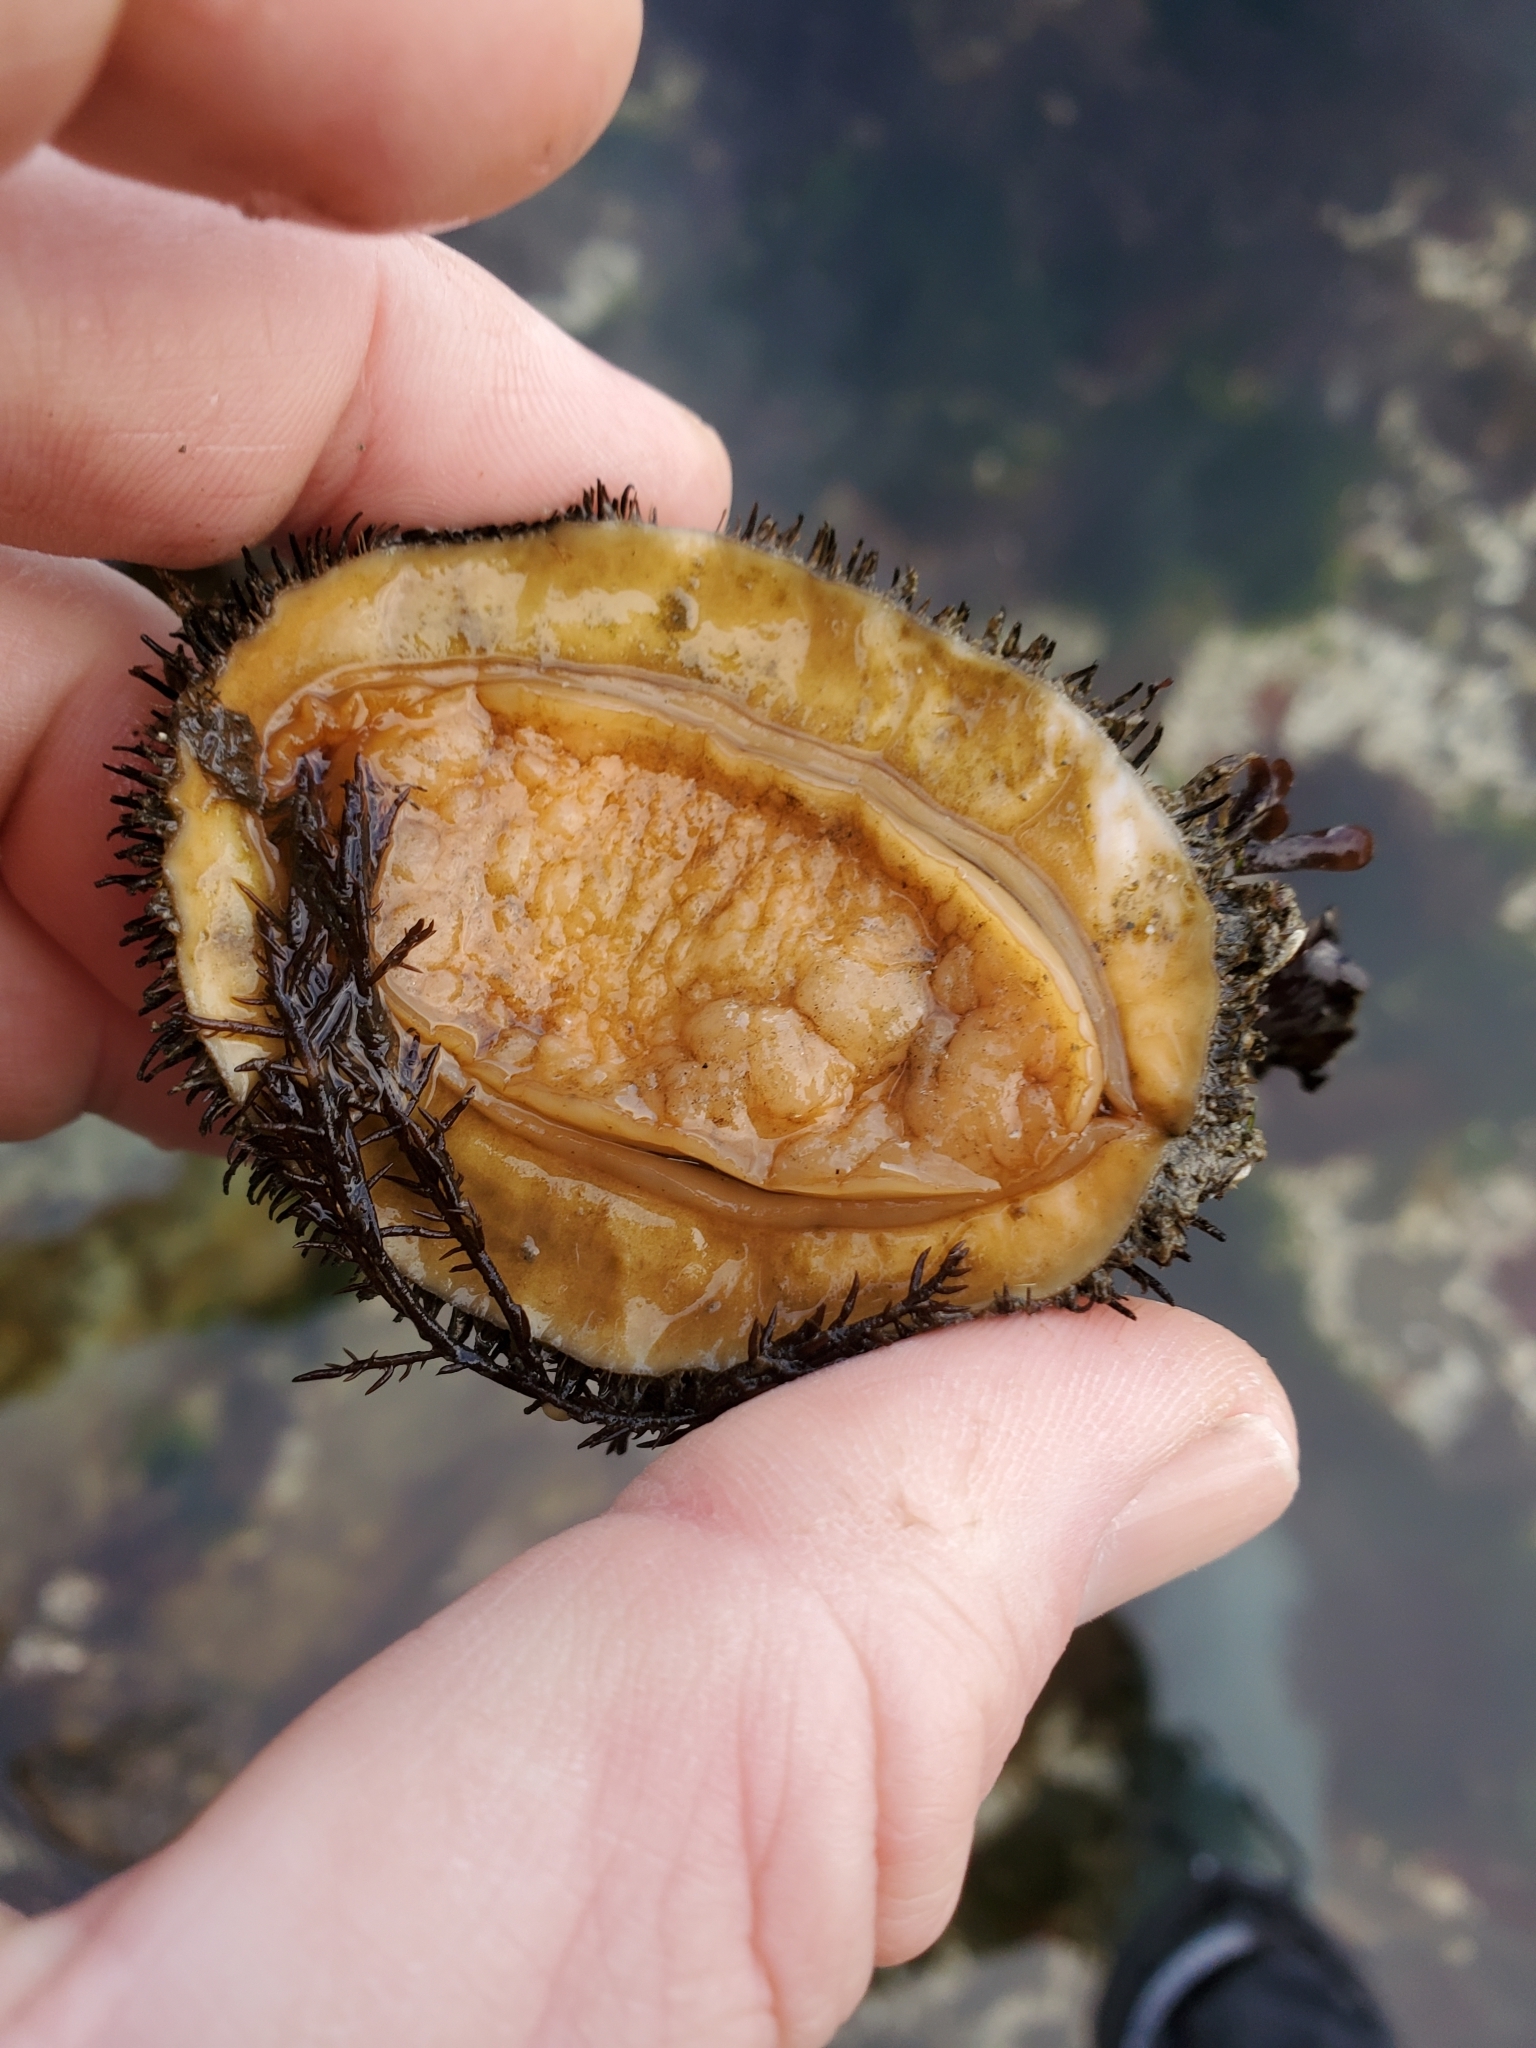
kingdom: Animalia
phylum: Mollusca
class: Polyplacophora
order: Chitonida
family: Mopaliidae
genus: Mopalia
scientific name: Mopalia muscosa
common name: Mossy chiton
